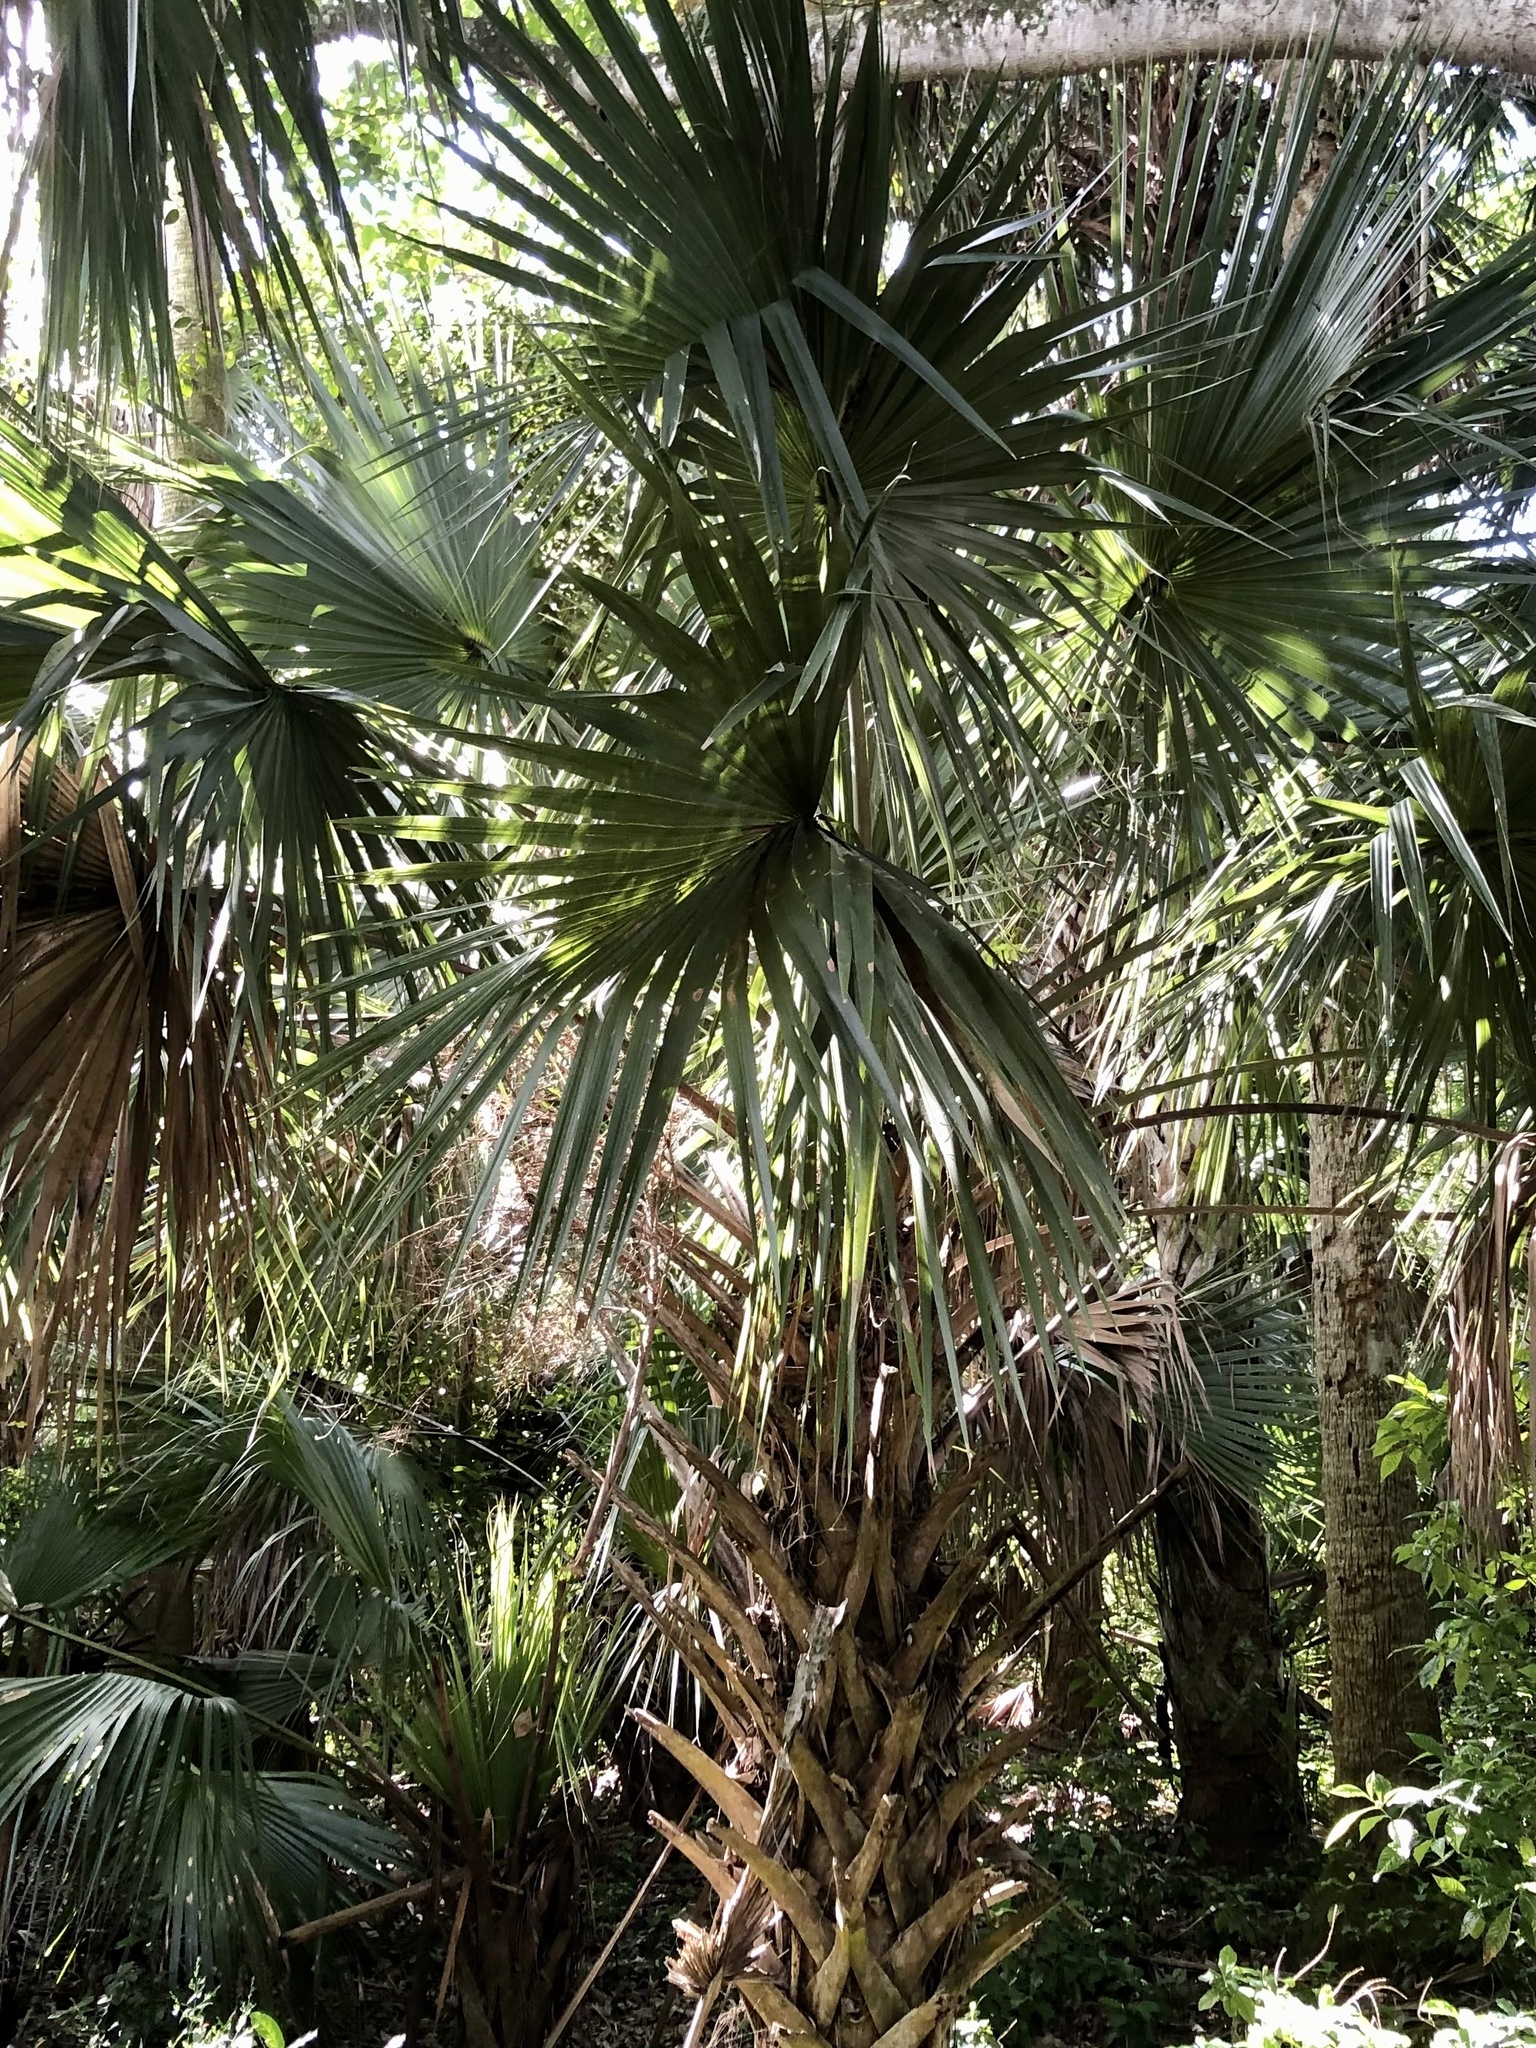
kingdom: Plantae
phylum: Tracheophyta
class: Liliopsida
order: Arecales
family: Arecaceae
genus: Sabal
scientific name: Sabal palmetto
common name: Blue palmetto
